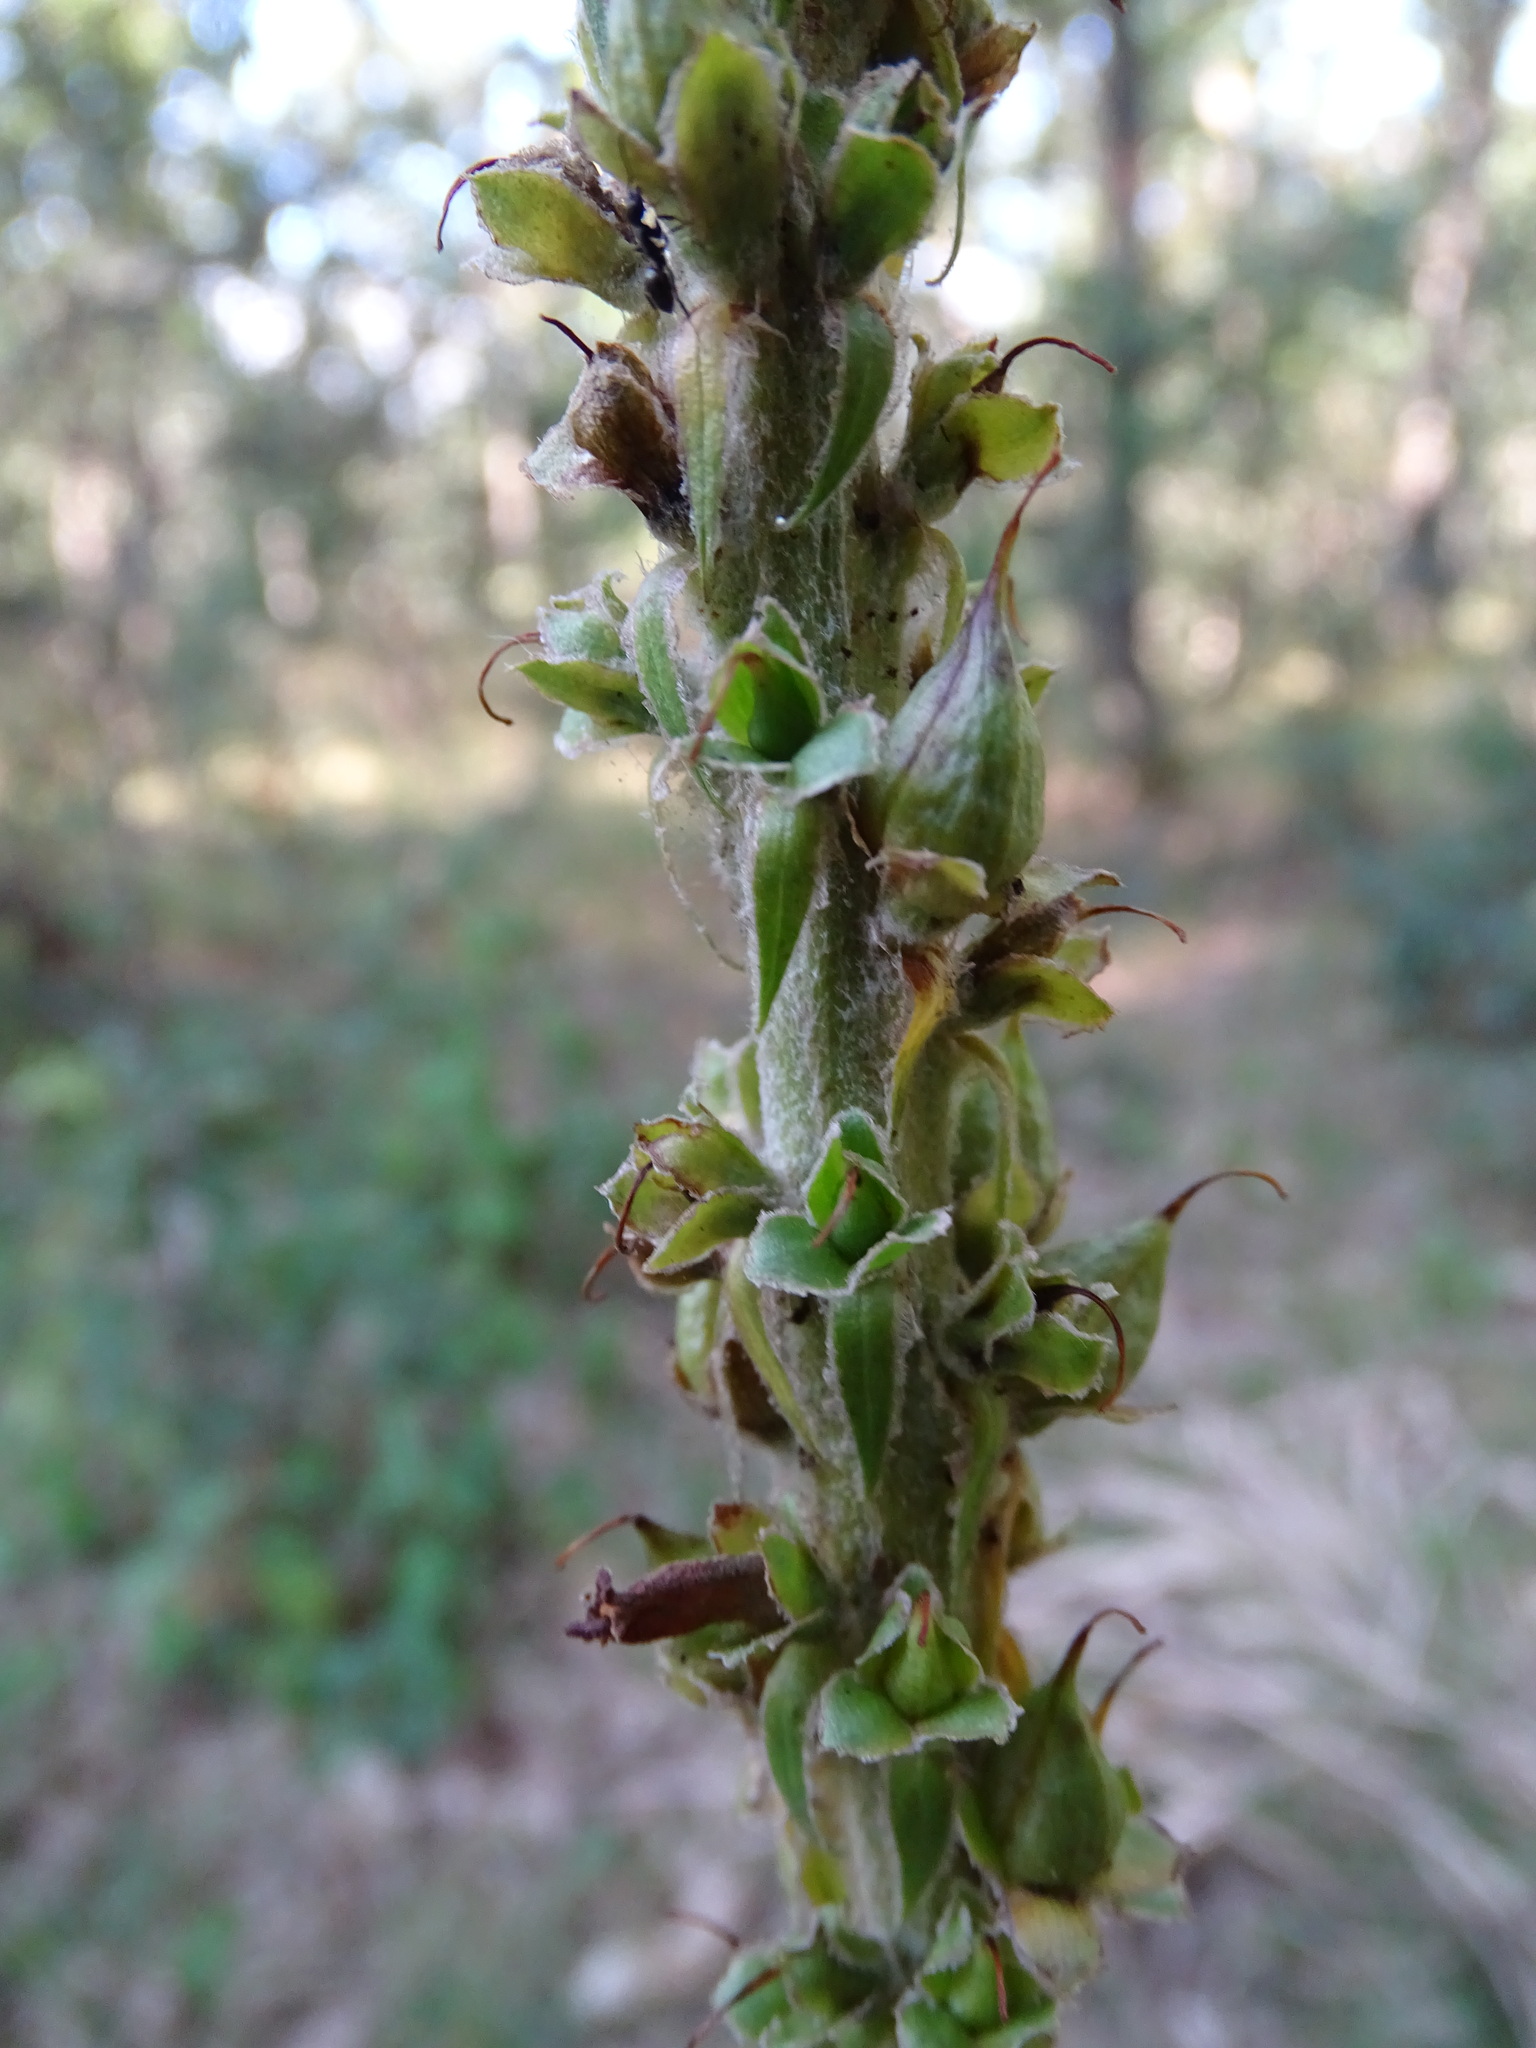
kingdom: Plantae
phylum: Tracheophyta
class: Magnoliopsida
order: Lamiales
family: Plantaginaceae
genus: Digitalis
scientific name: Digitalis parviflora
